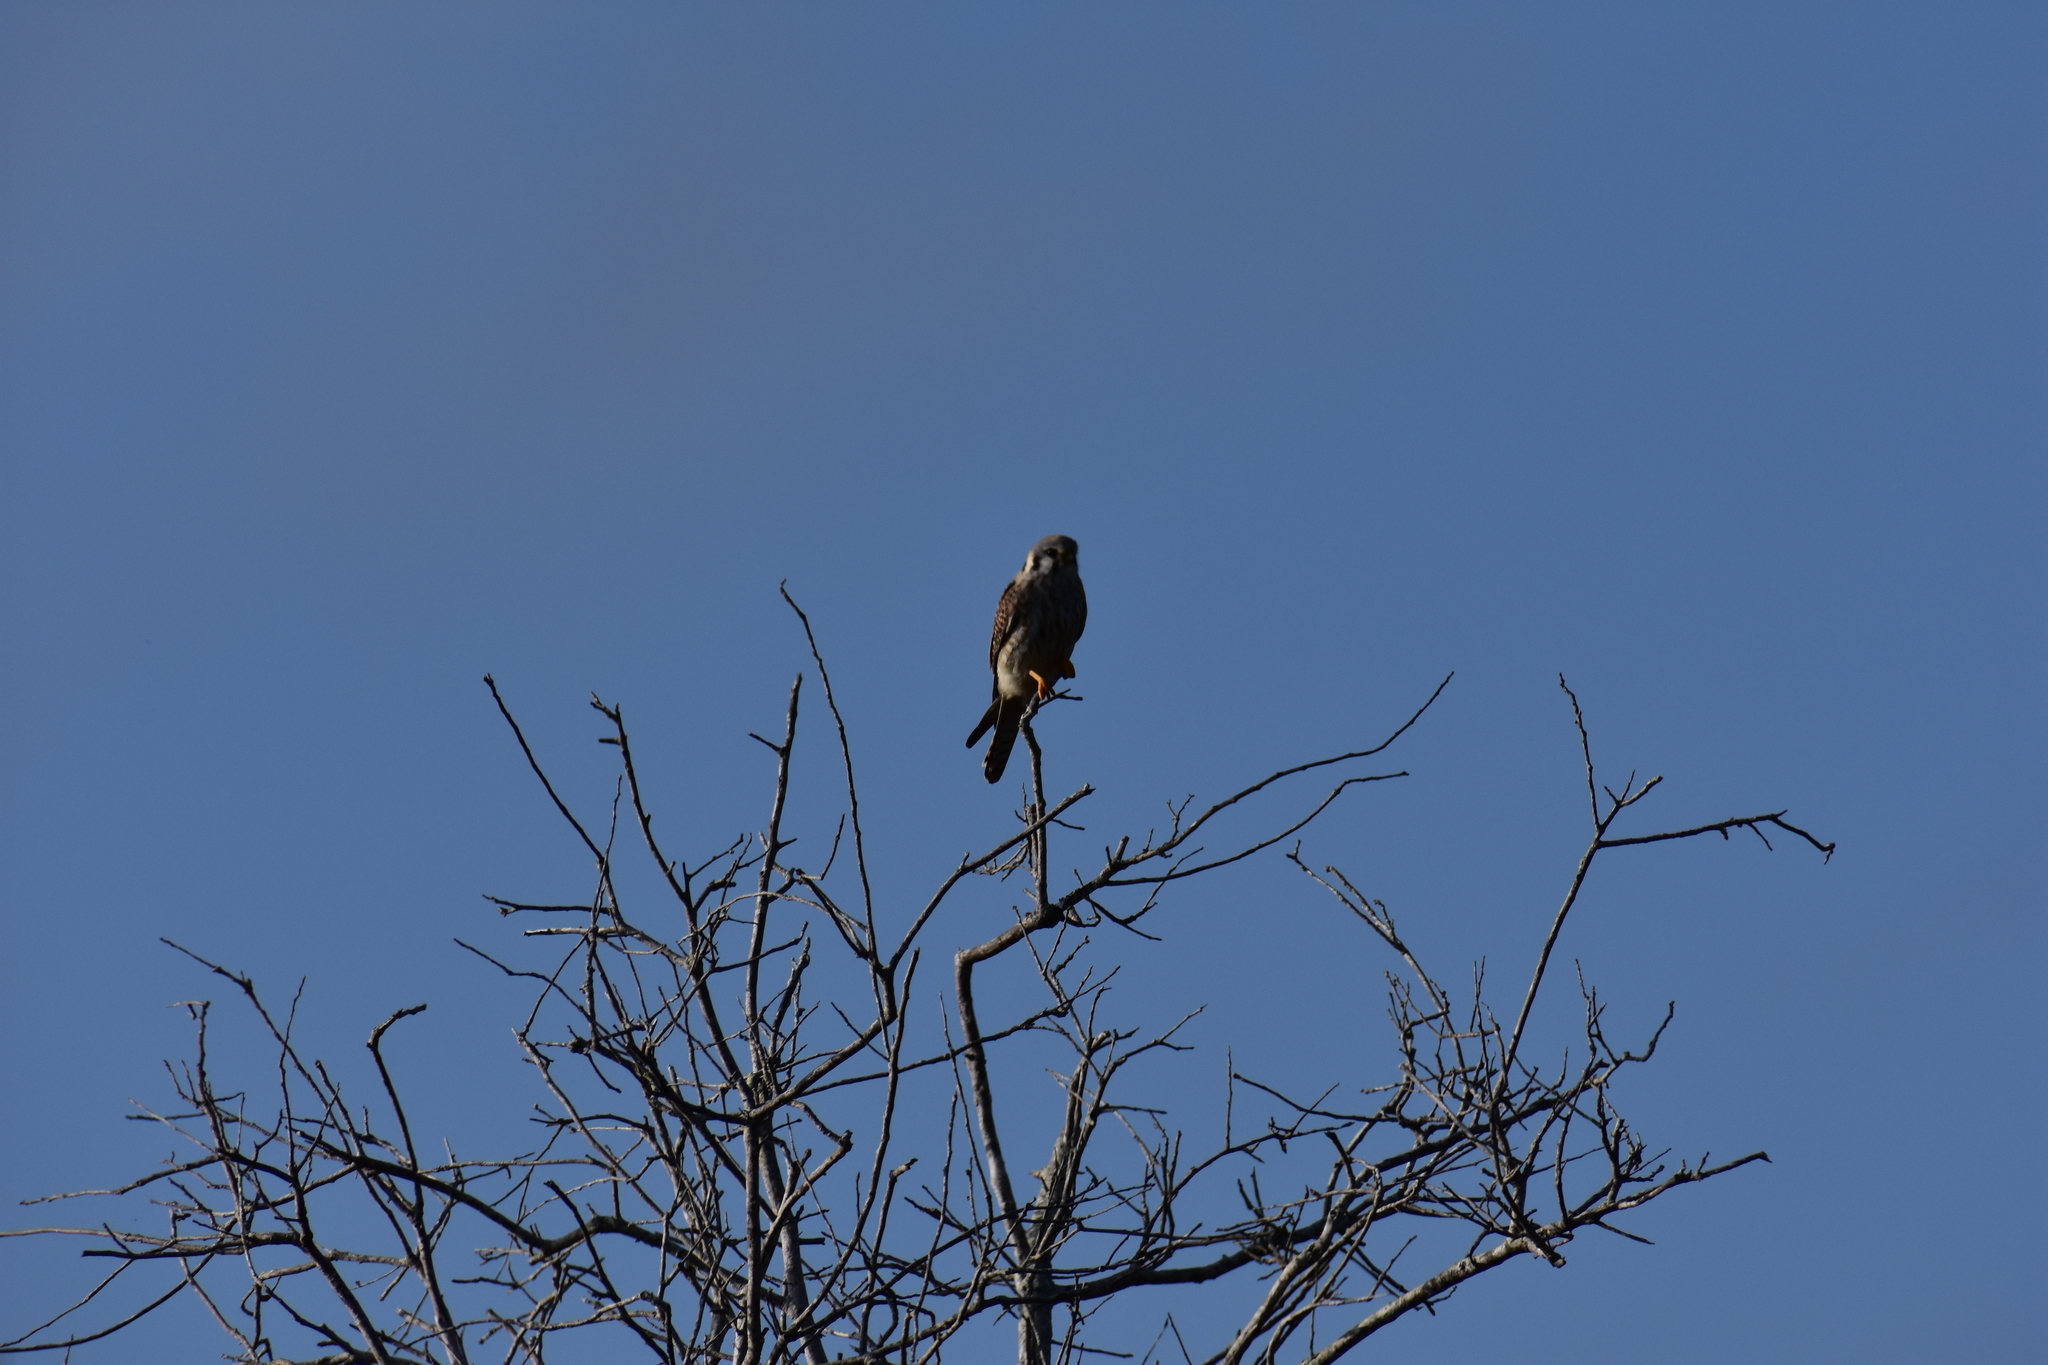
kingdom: Animalia
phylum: Chordata
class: Aves
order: Falconiformes
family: Falconidae
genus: Falco
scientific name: Falco sparverius
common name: American kestrel
